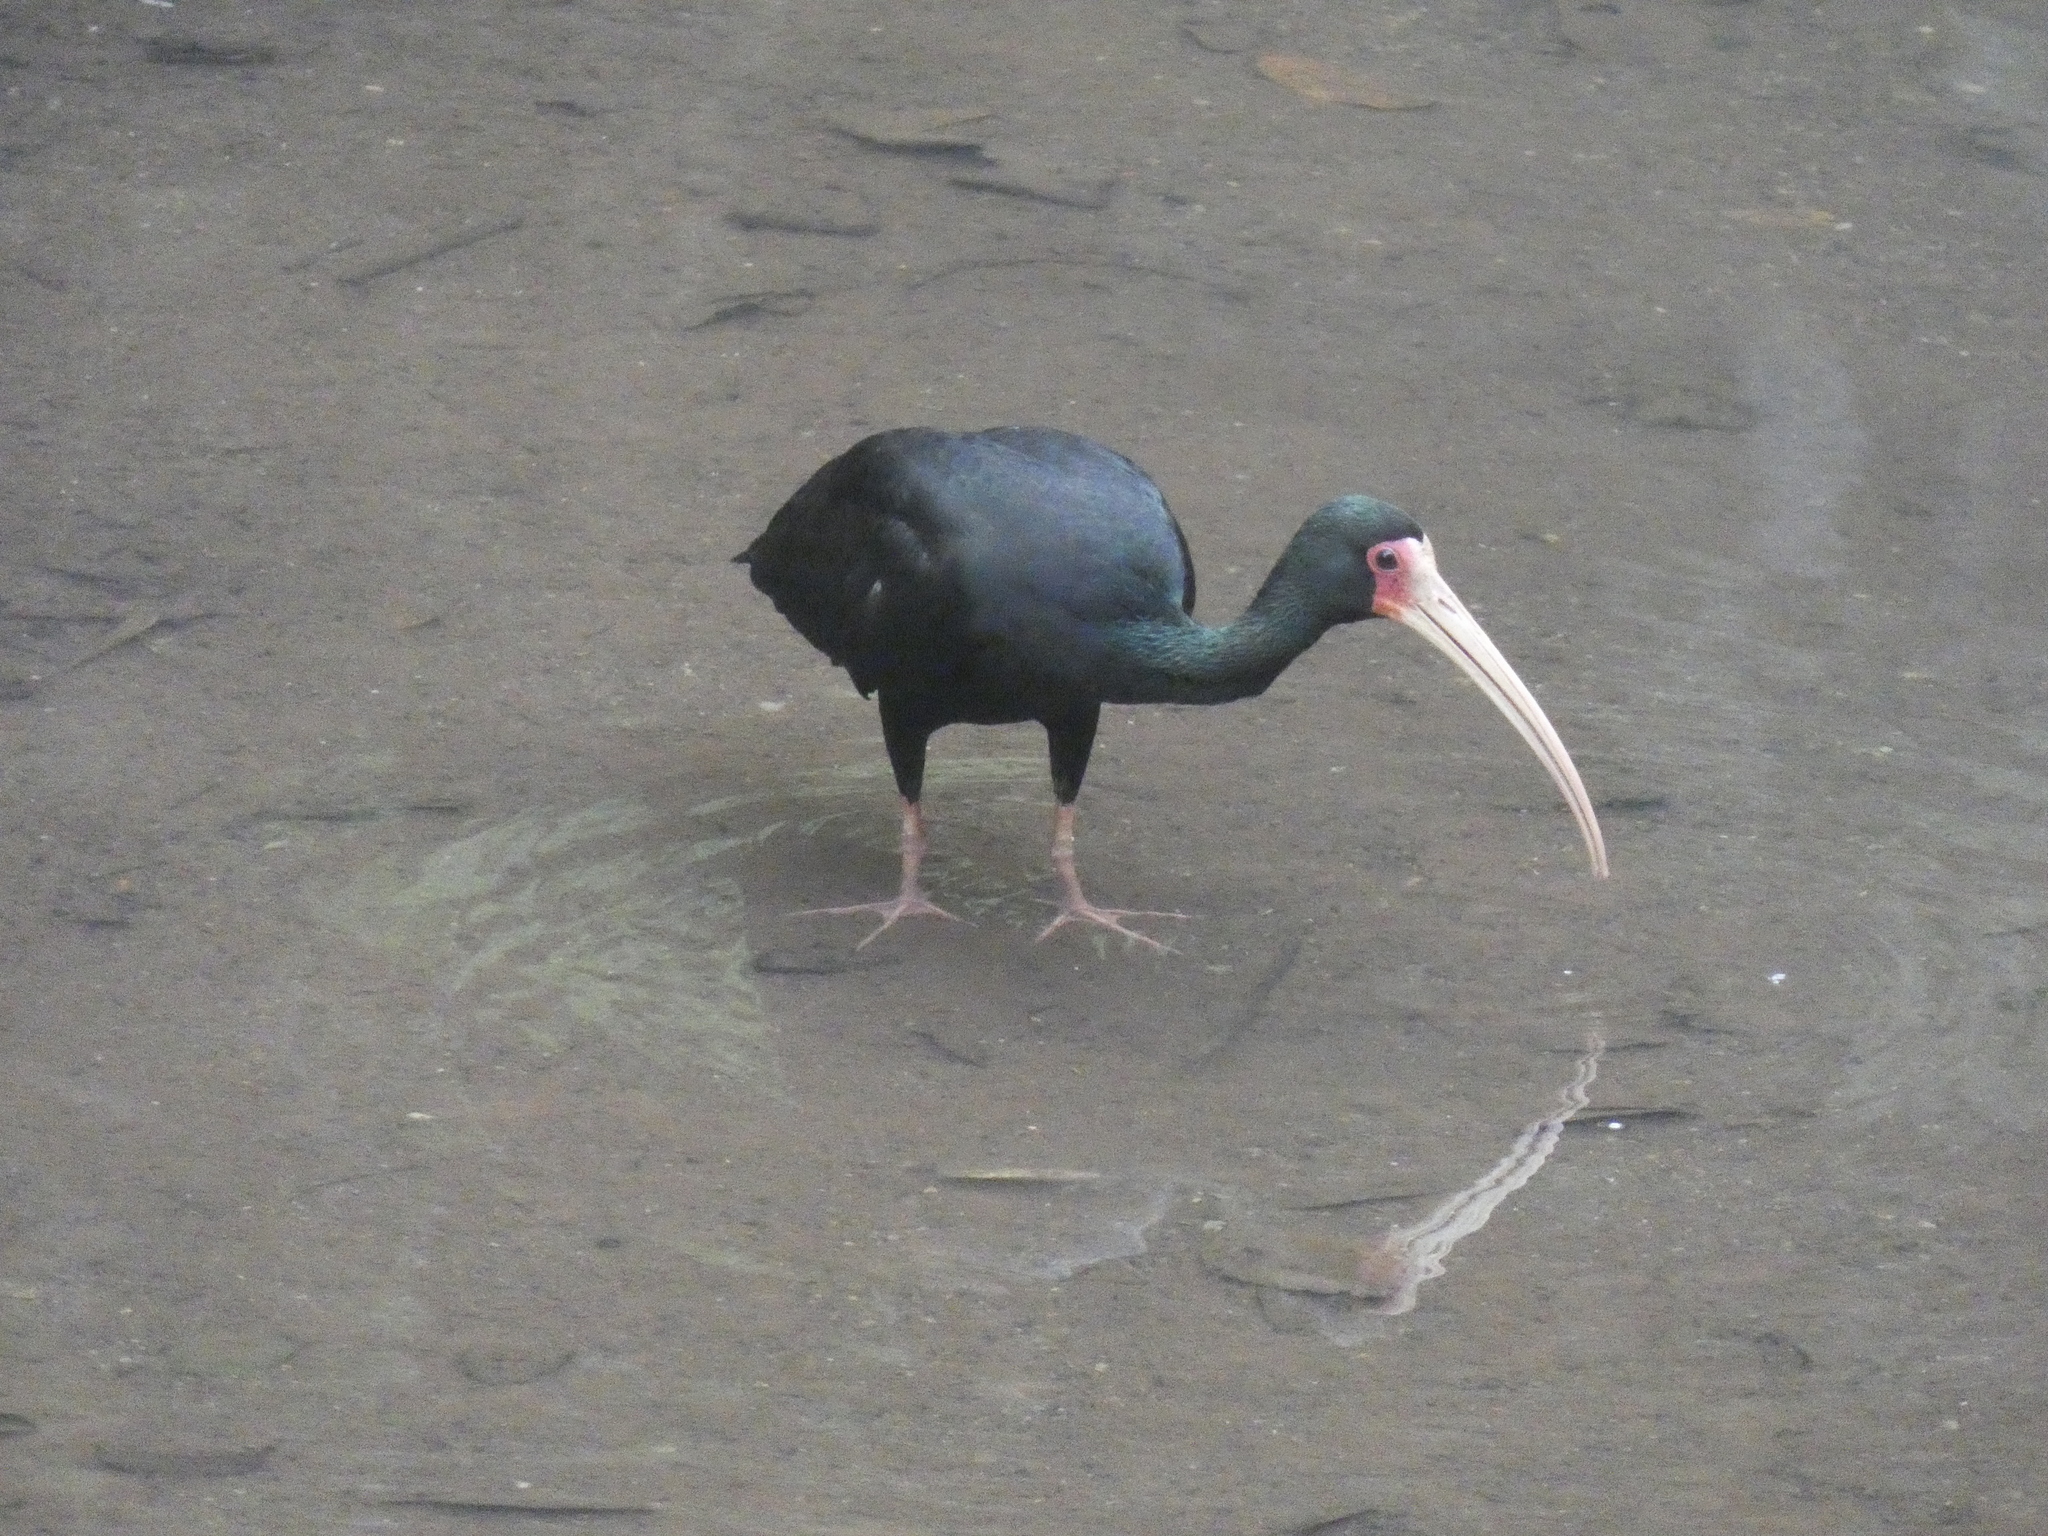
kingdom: Animalia
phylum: Chordata
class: Aves
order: Pelecaniformes
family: Threskiornithidae
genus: Phimosus
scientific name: Phimosus infuscatus
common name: Bare-faced ibis
